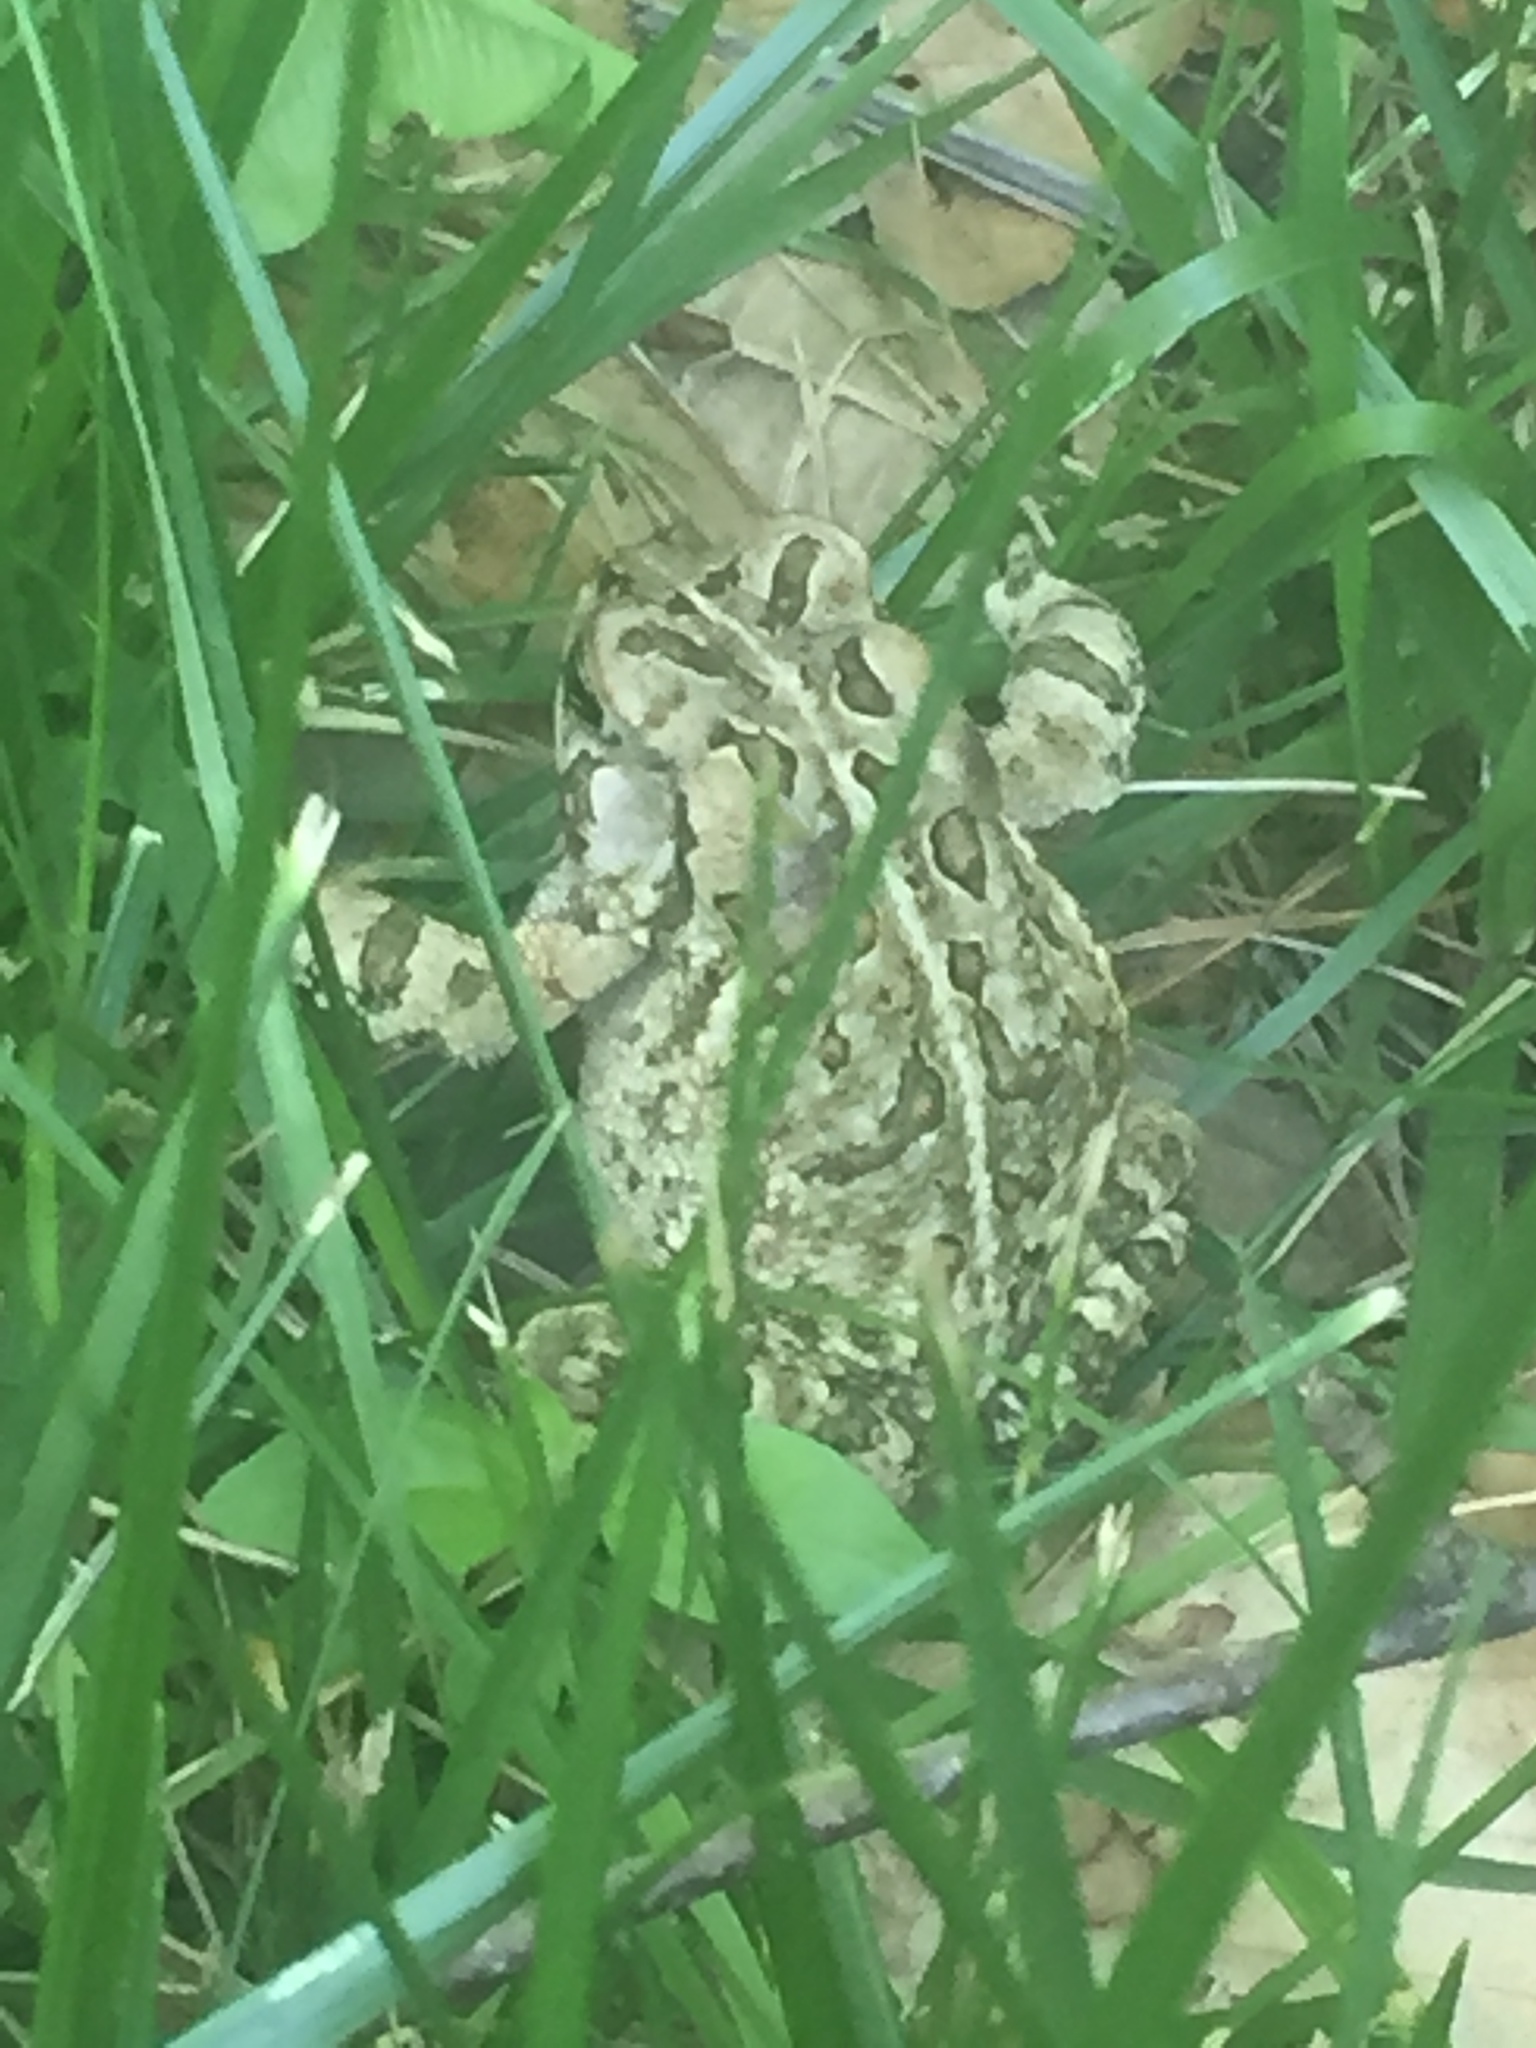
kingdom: Animalia
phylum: Chordata
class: Amphibia
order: Anura
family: Bufonidae
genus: Anaxyrus
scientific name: Anaxyrus fowleri
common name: Fowler's toad
